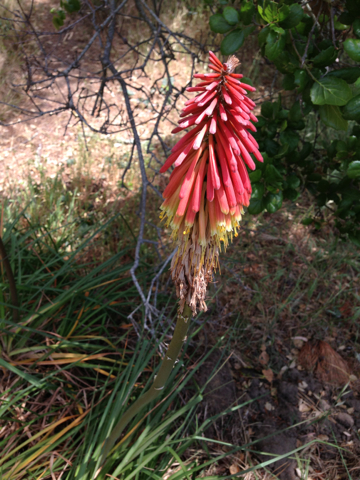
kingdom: Plantae
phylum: Tracheophyta
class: Liliopsida
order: Asparagales
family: Asphodelaceae
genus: Kniphofia
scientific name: Kniphofia uvaria
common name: Red-hot-poker
